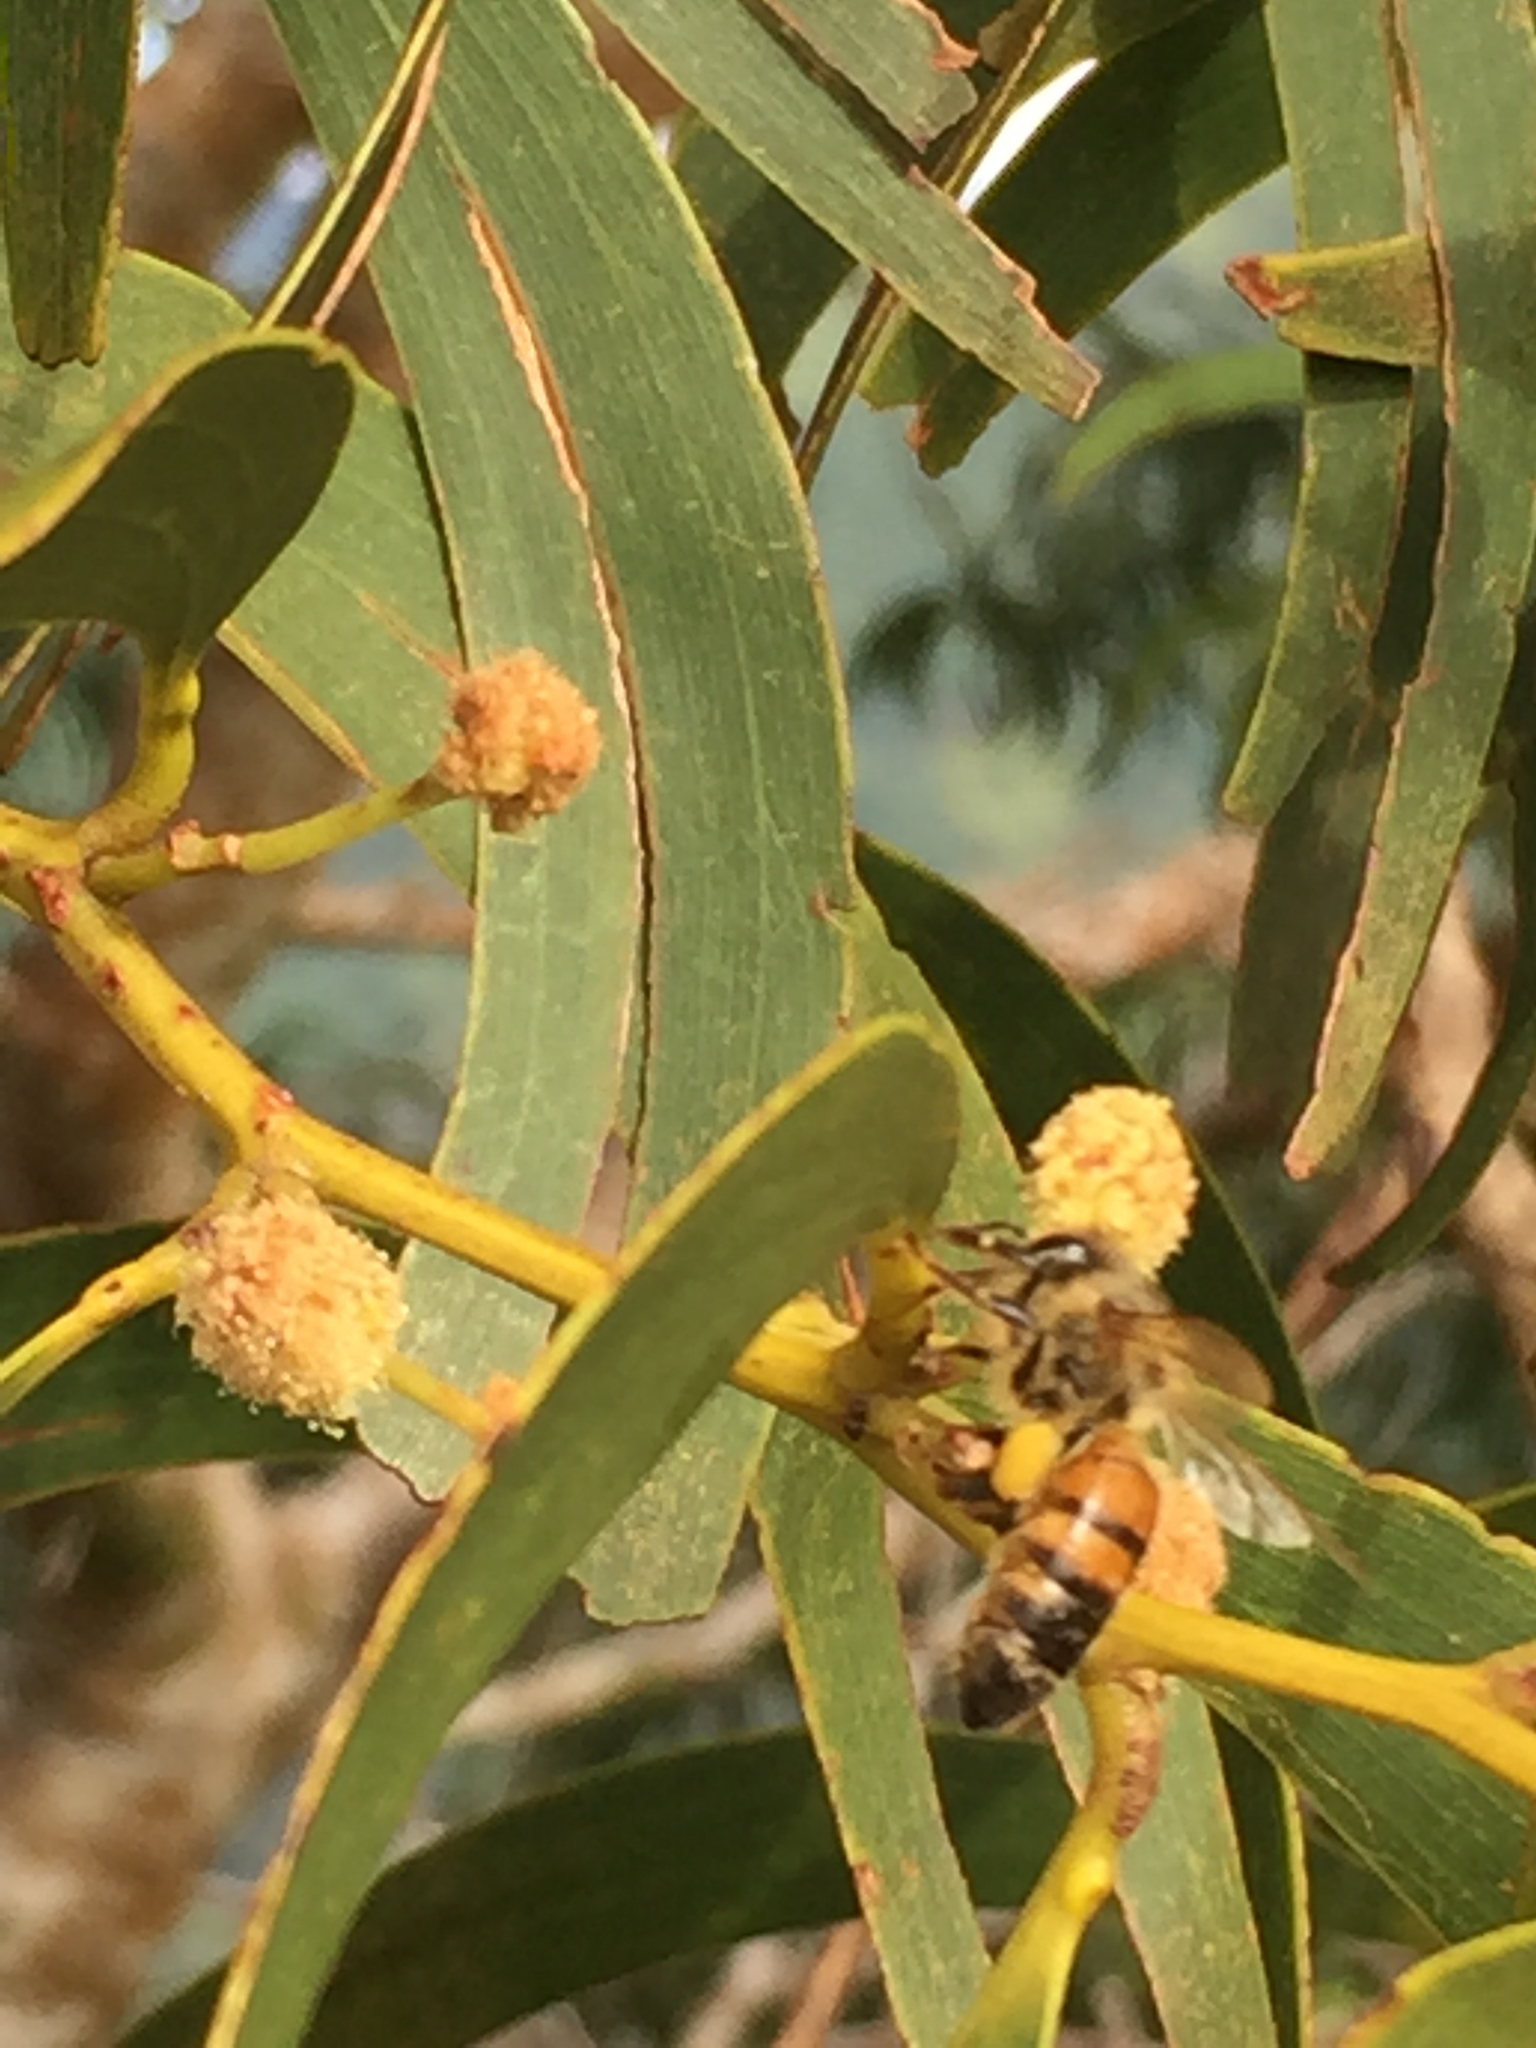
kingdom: Animalia
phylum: Arthropoda
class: Insecta
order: Hymenoptera
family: Apidae
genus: Apis
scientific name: Apis mellifera
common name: Honey bee
